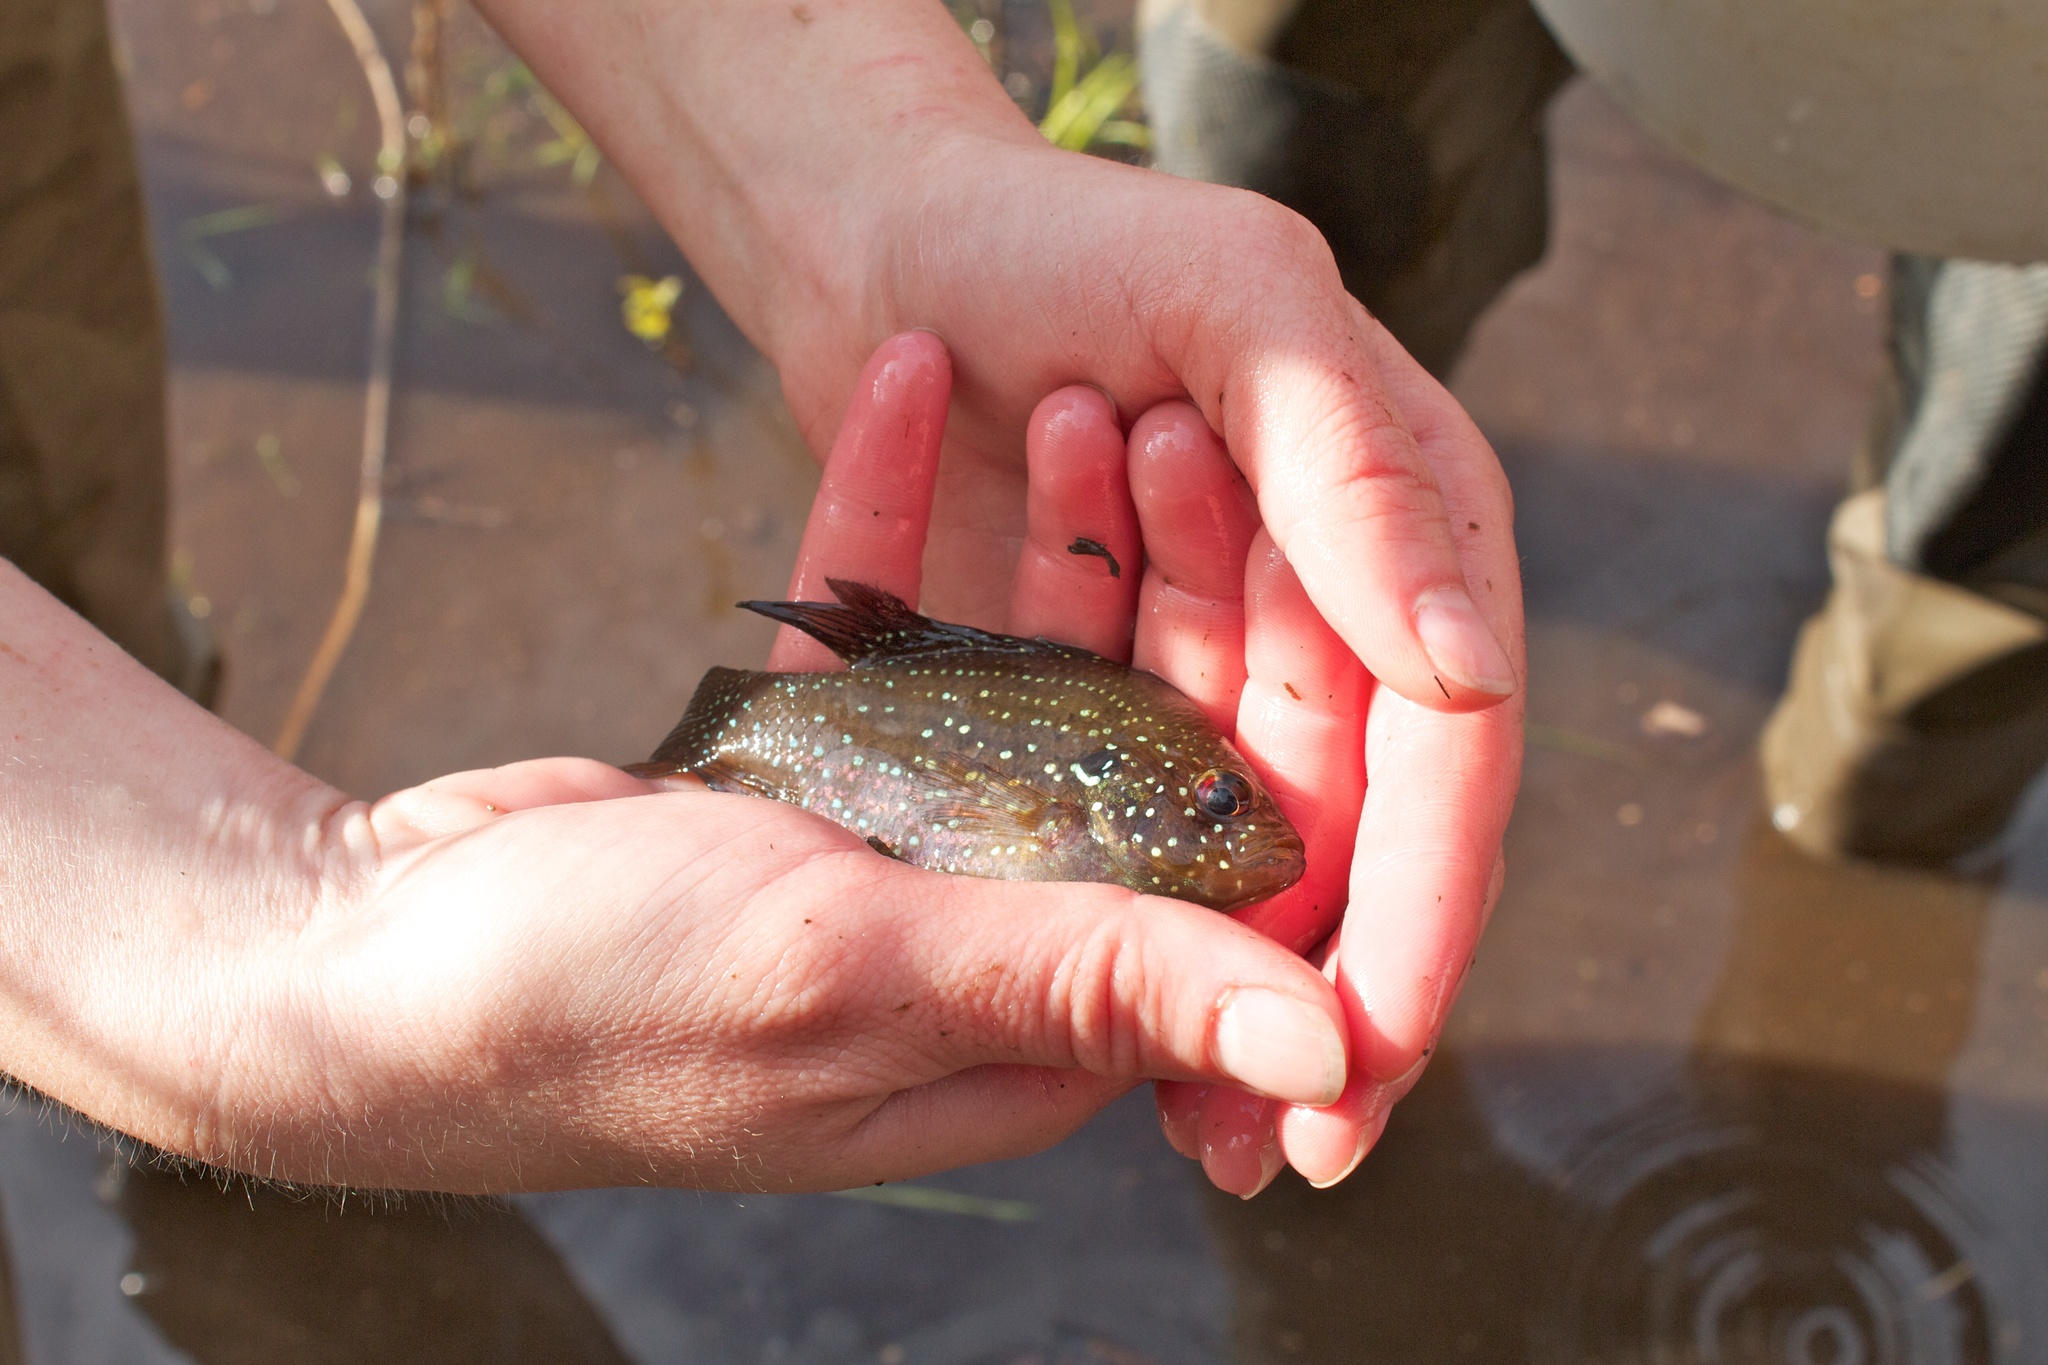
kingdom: Animalia
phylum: Chordata
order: Perciformes
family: Centrarchidae
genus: Enneacanthus
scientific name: Enneacanthus gloriosus
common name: Bluespotted sunfish
